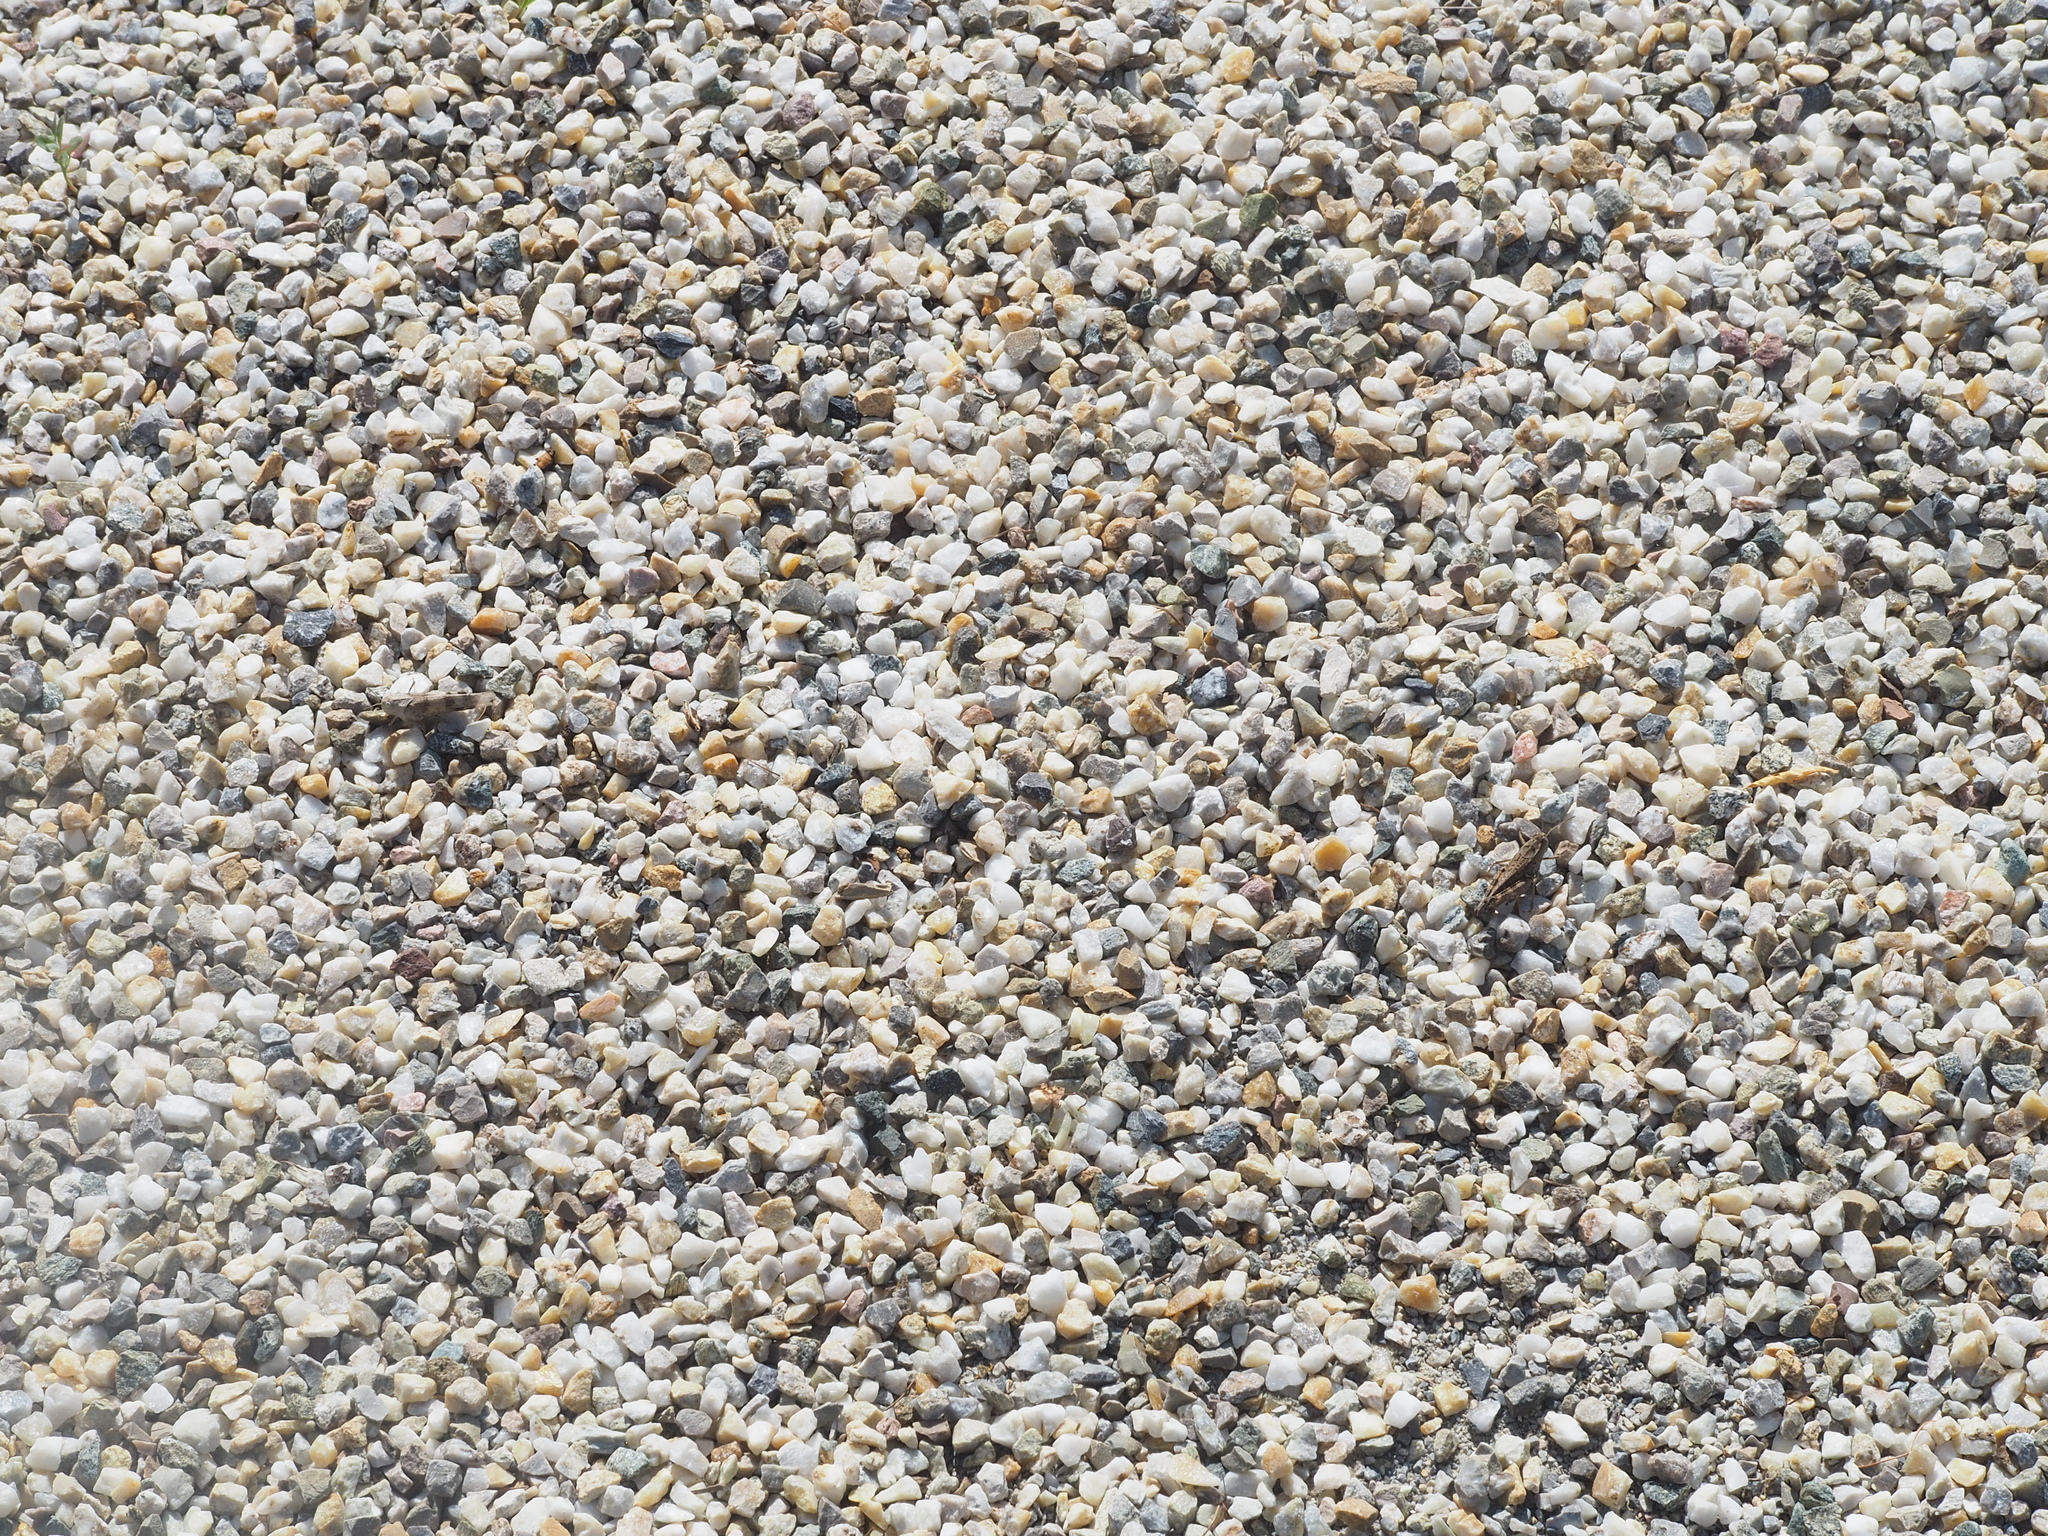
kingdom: Animalia
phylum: Arthropoda
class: Insecta
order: Orthoptera
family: Acrididae
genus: Calliptamus
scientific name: Calliptamus italicus
